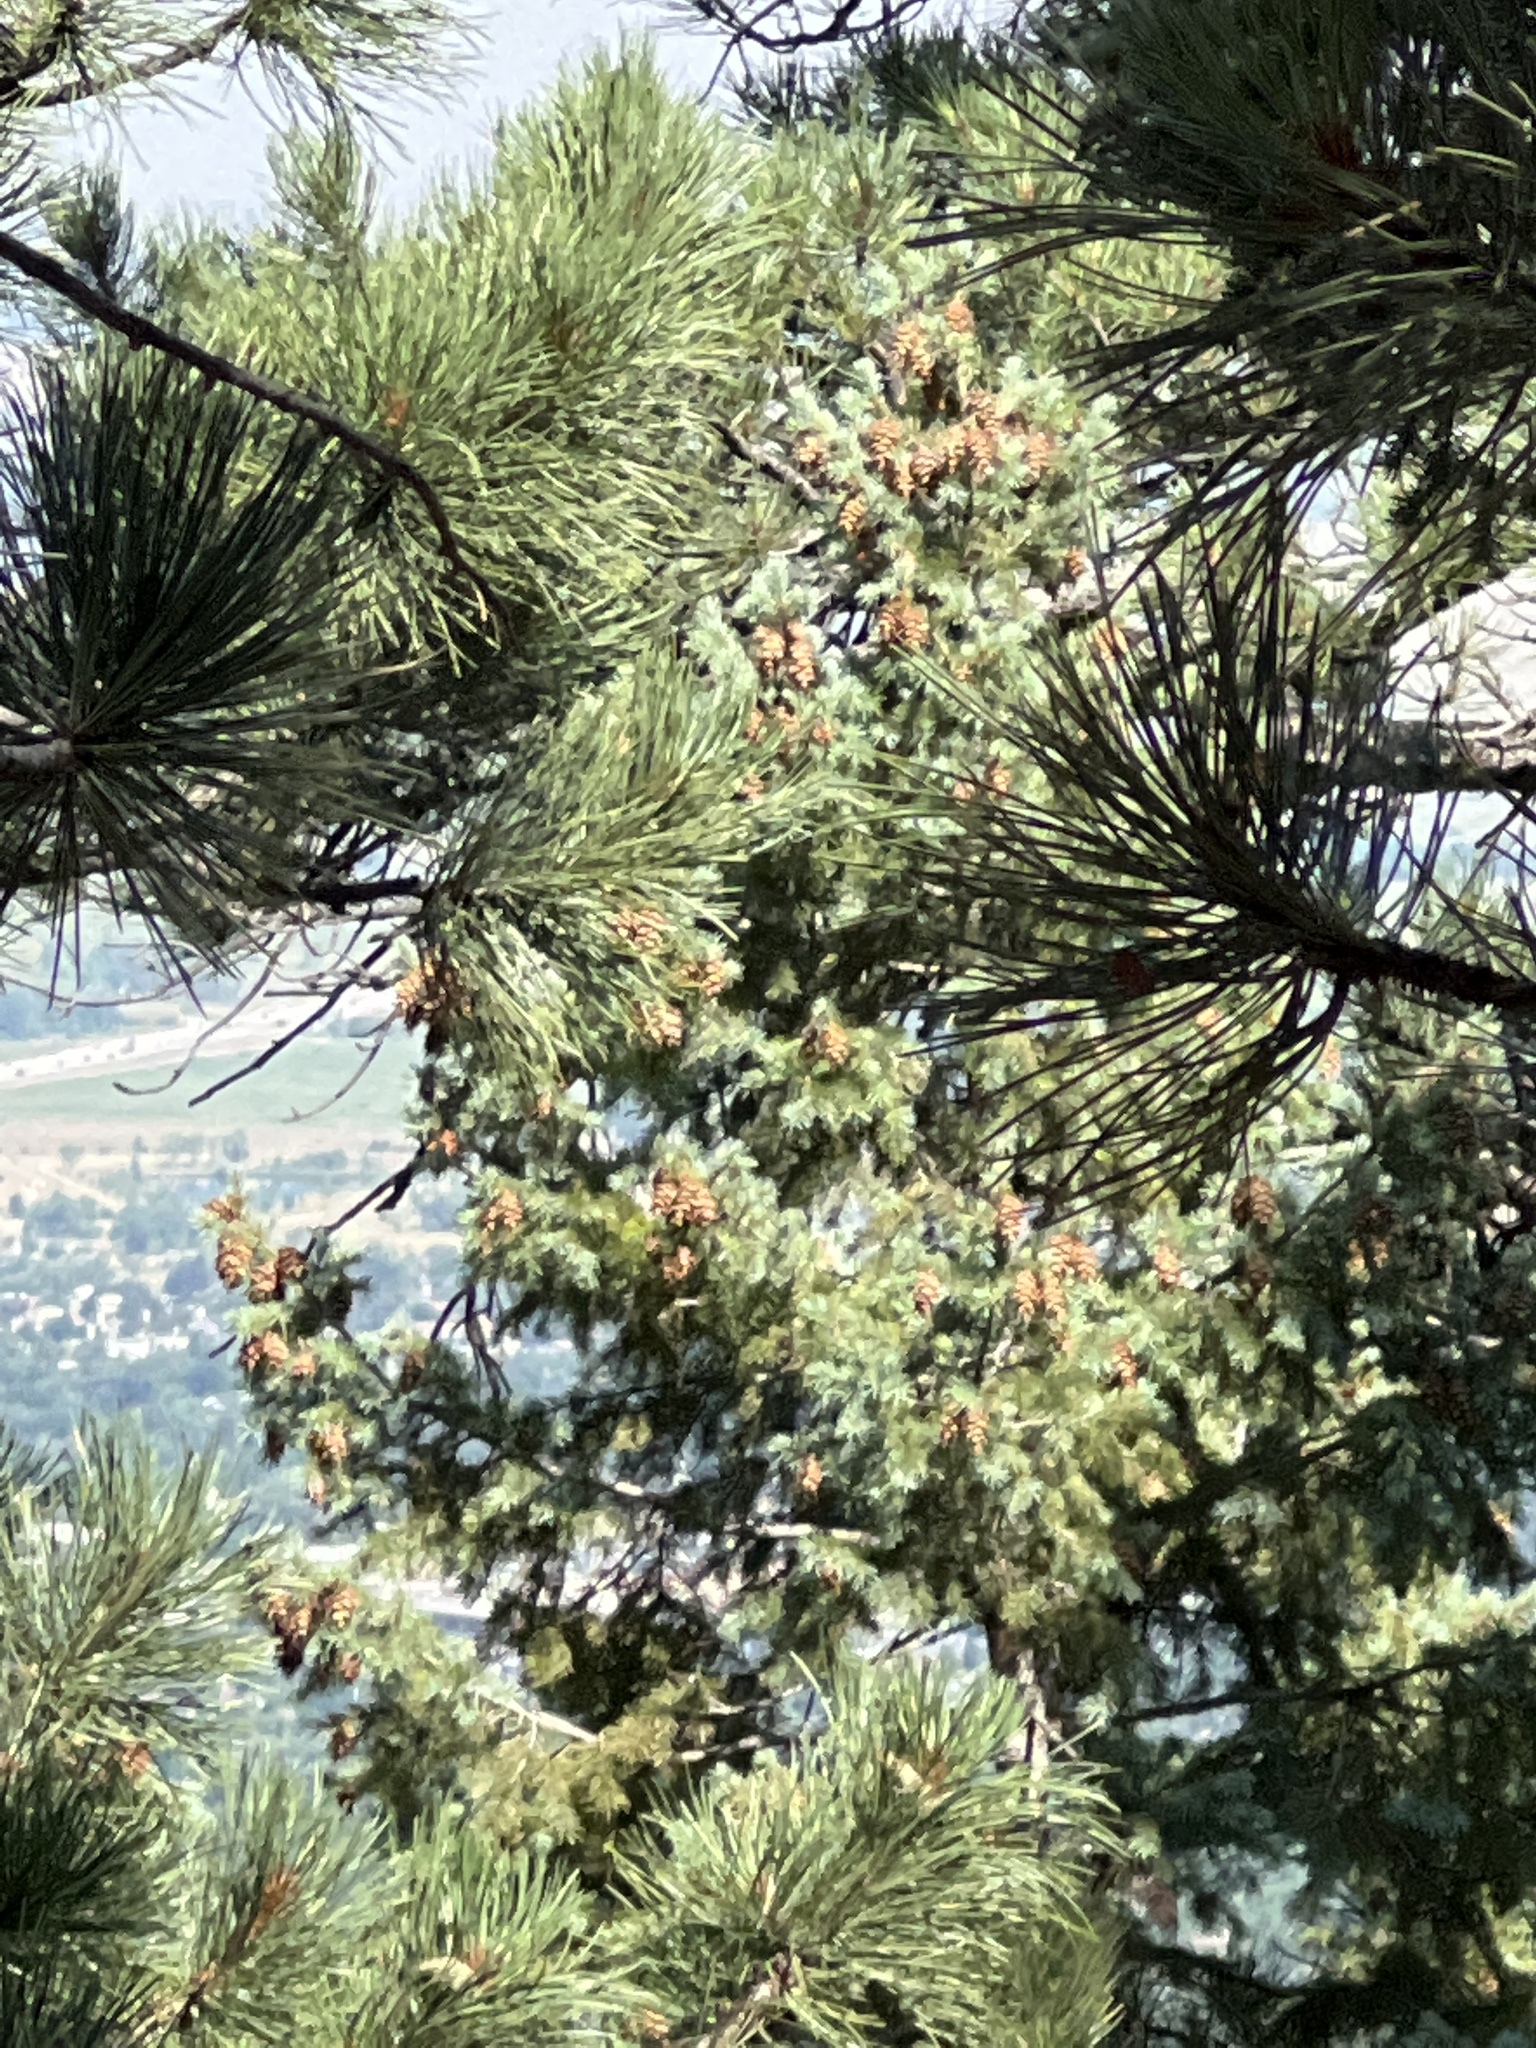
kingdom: Plantae
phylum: Tracheophyta
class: Pinopsida
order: Pinales
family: Pinaceae
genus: Pseudotsuga
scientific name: Pseudotsuga menziesii
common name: Douglas fir
